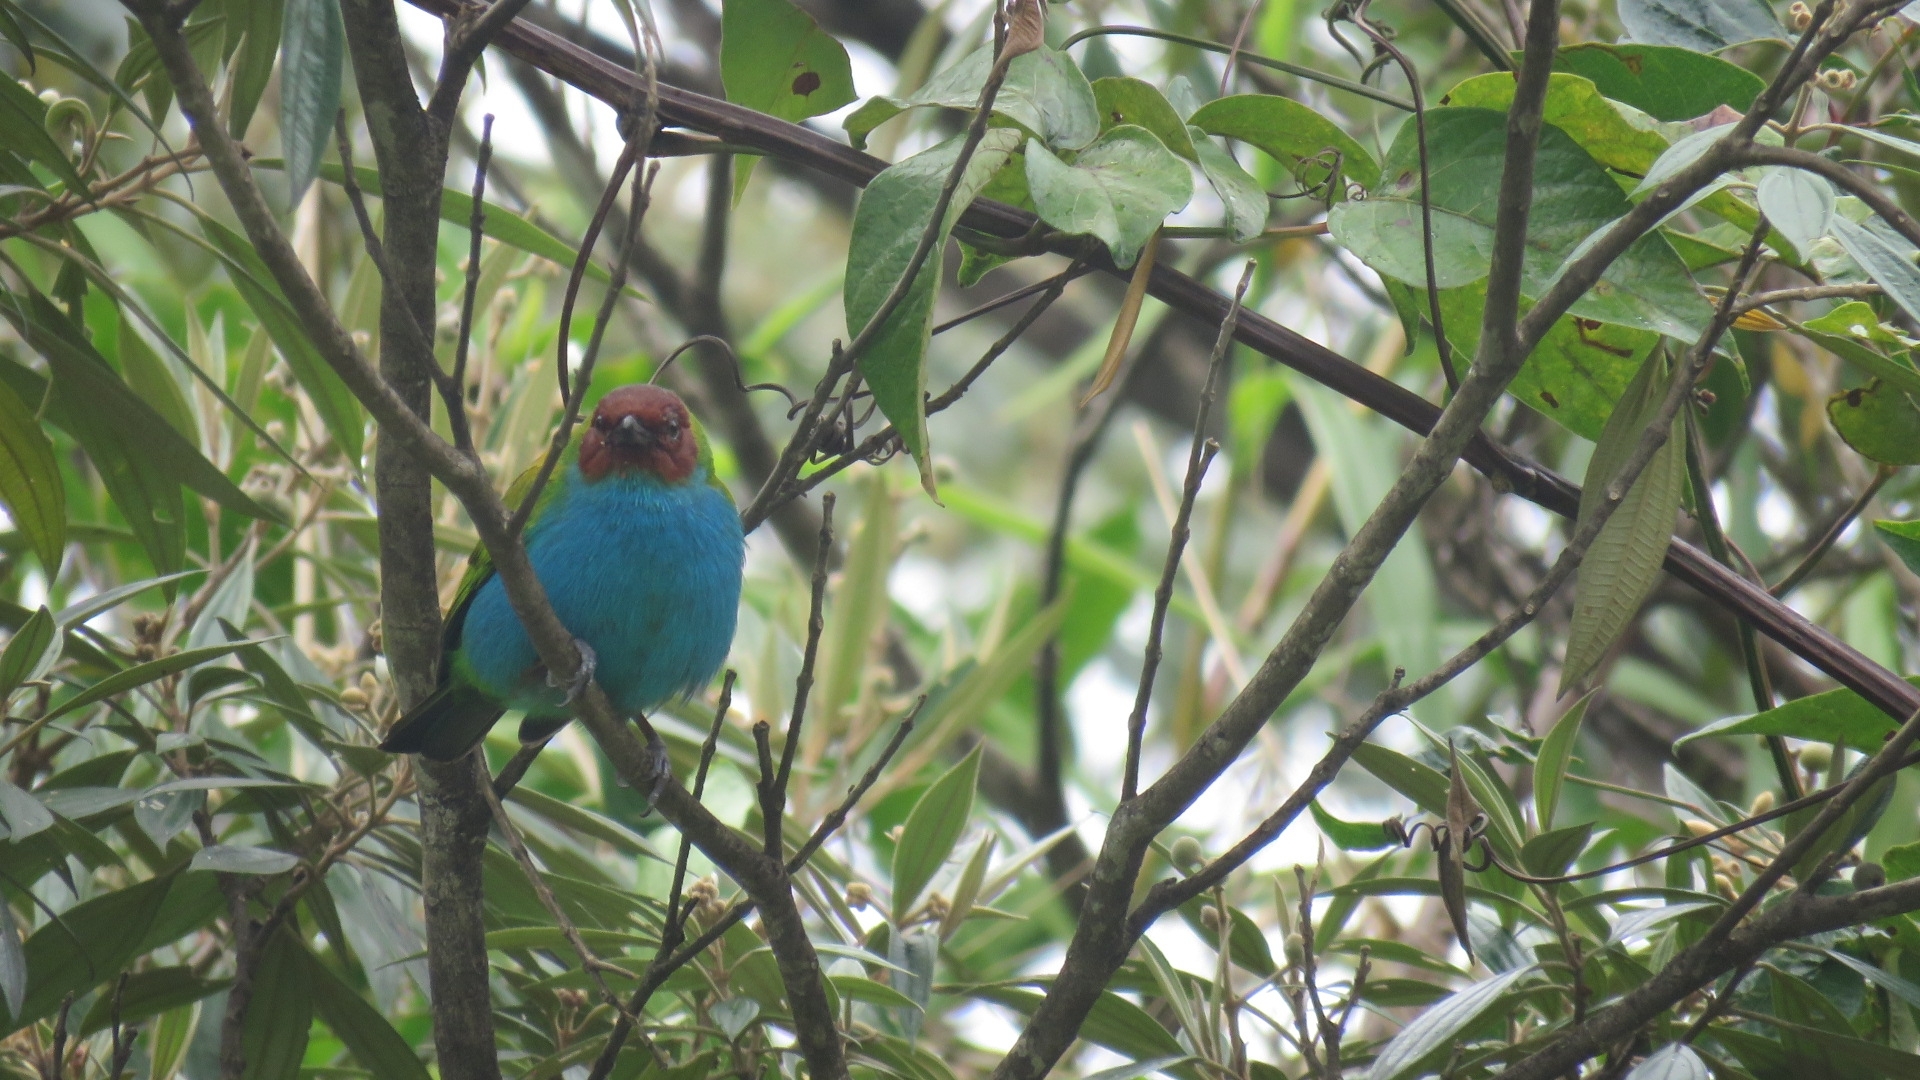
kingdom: Animalia
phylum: Chordata
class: Aves
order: Passeriformes
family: Thraupidae
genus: Tangara
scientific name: Tangara gyrola
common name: Bay-headed tanager
